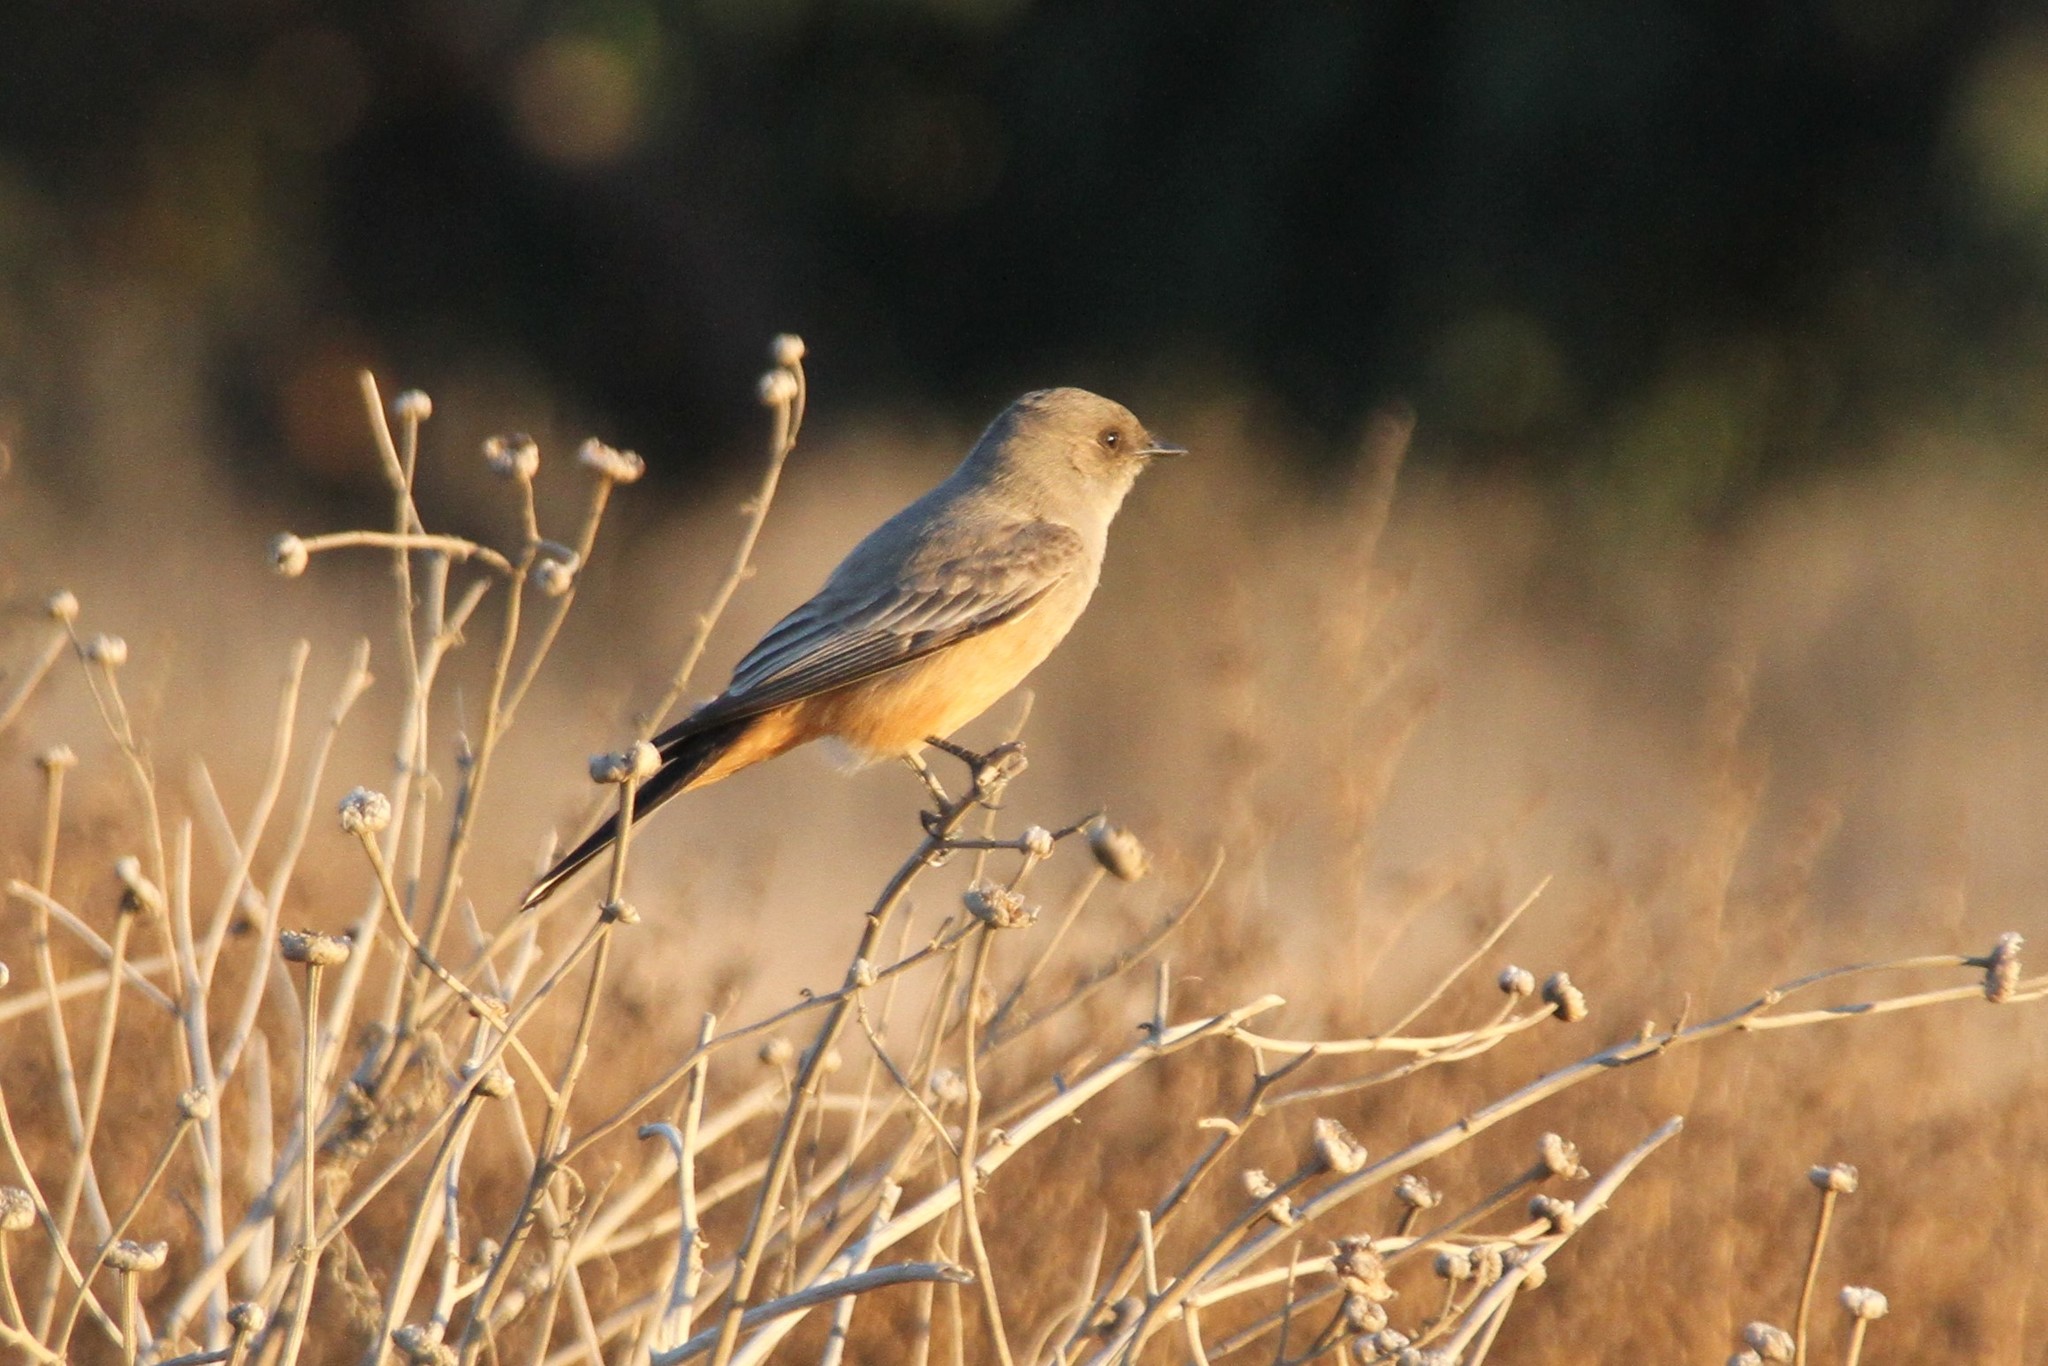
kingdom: Animalia
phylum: Chordata
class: Aves
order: Passeriformes
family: Tyrannidae
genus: Sayornis
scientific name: Sayornis saya
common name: Say's phoebe
